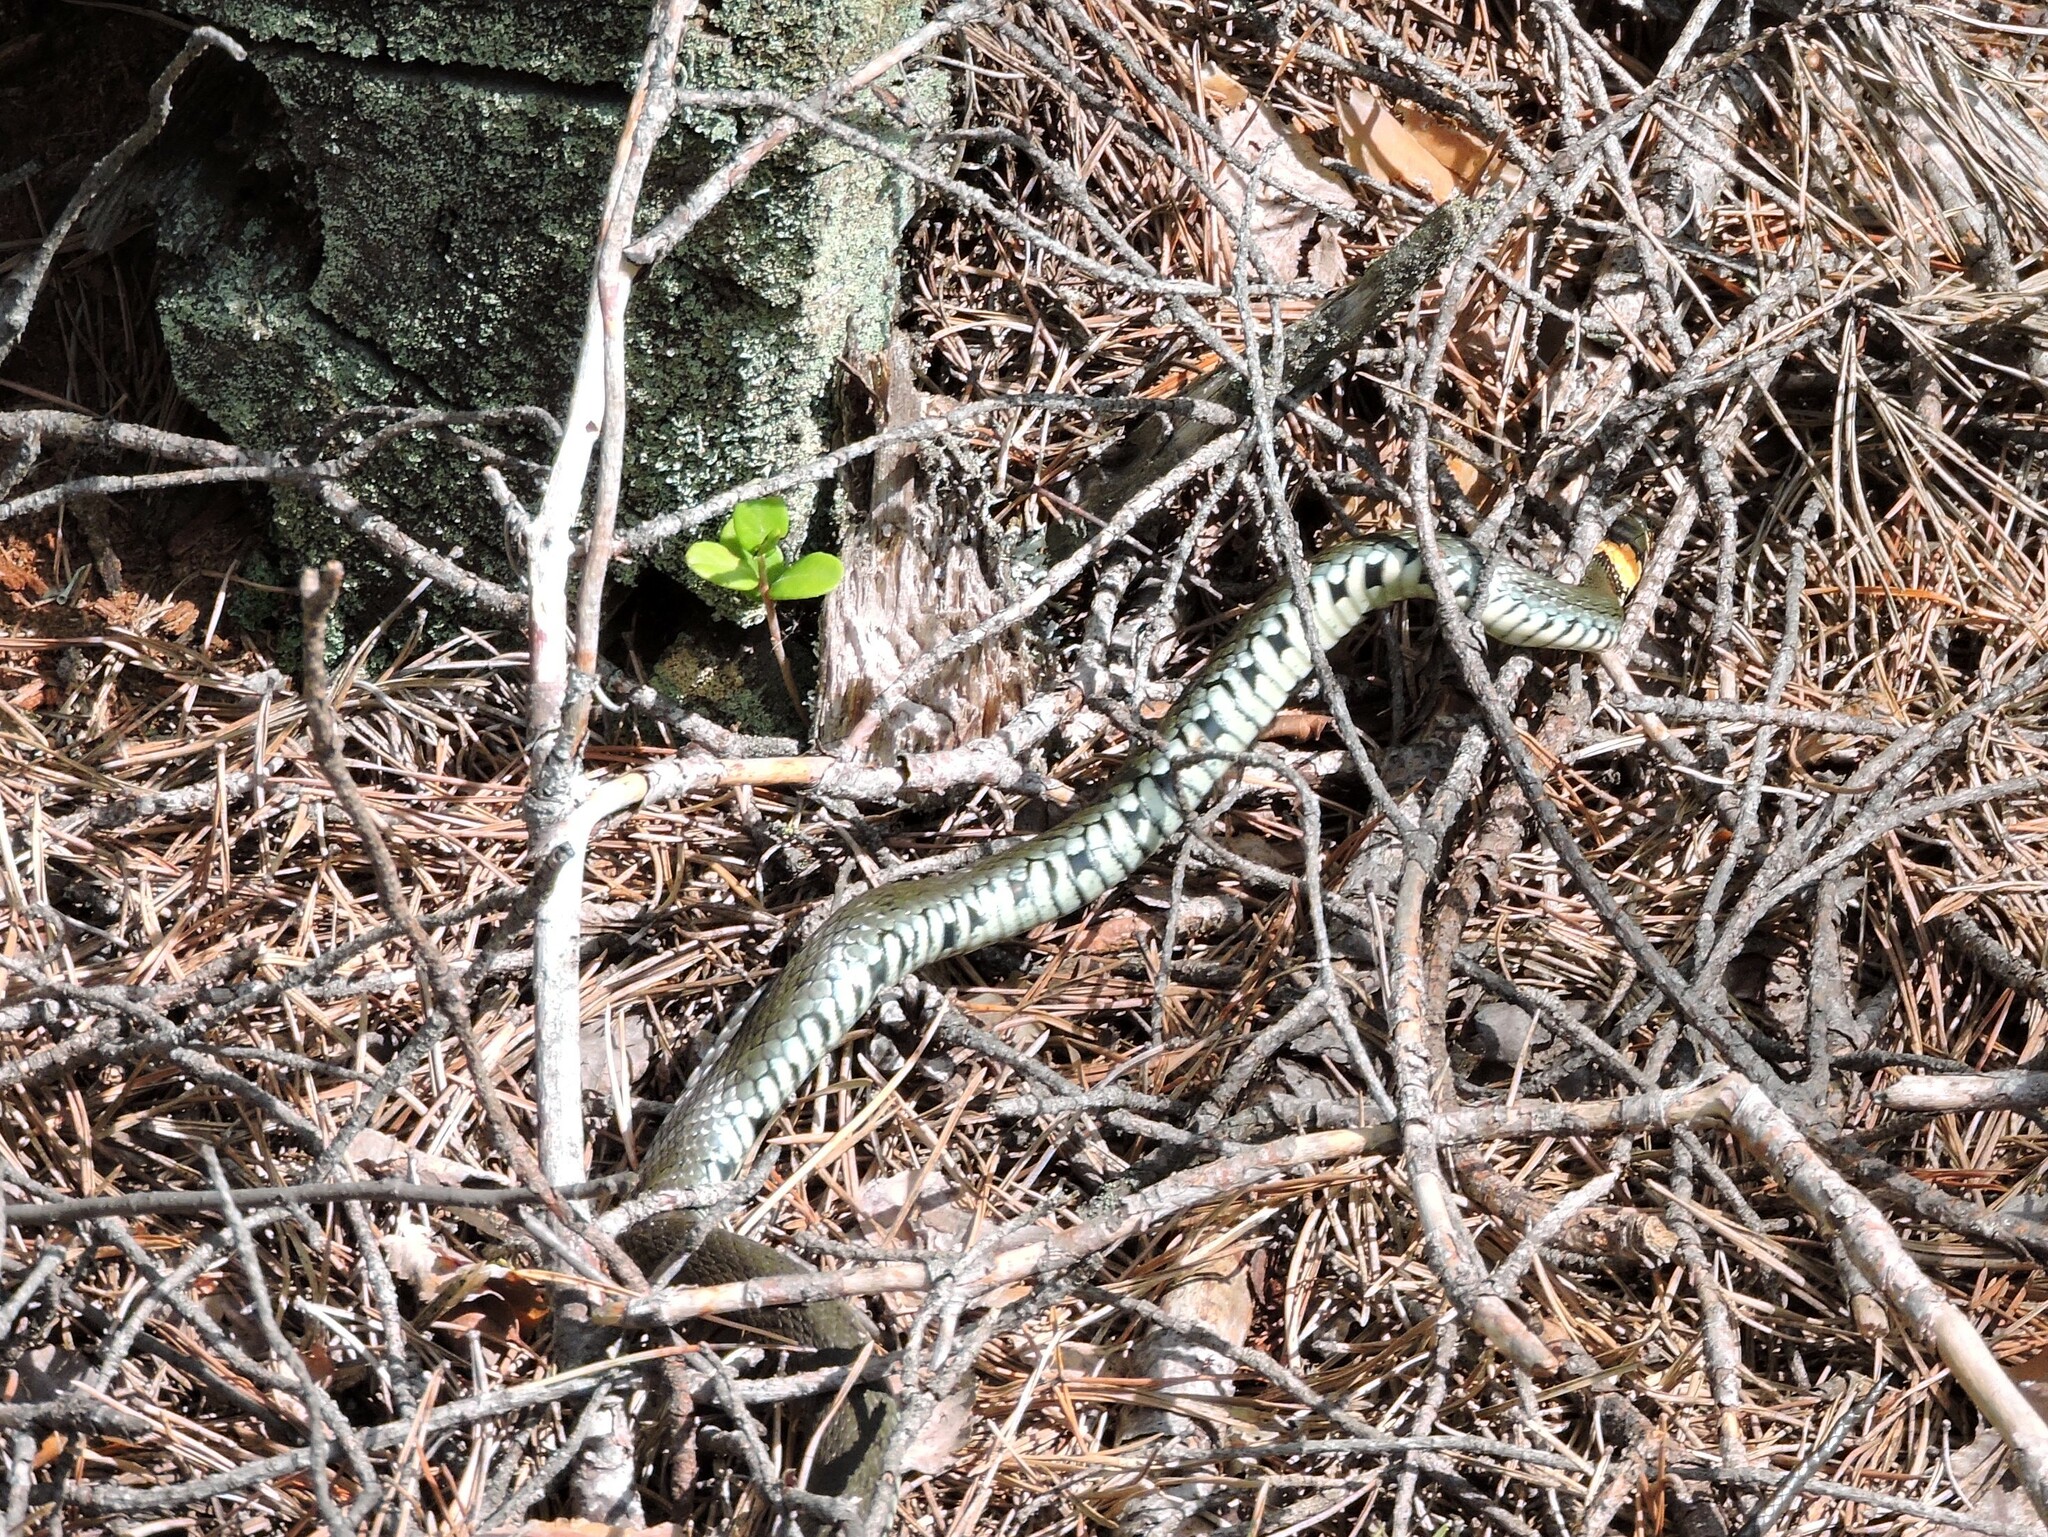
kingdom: Animalia
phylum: Chordata
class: Squamata
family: Colubridae
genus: Natrix
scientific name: Natrix natrix
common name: Grass snake
